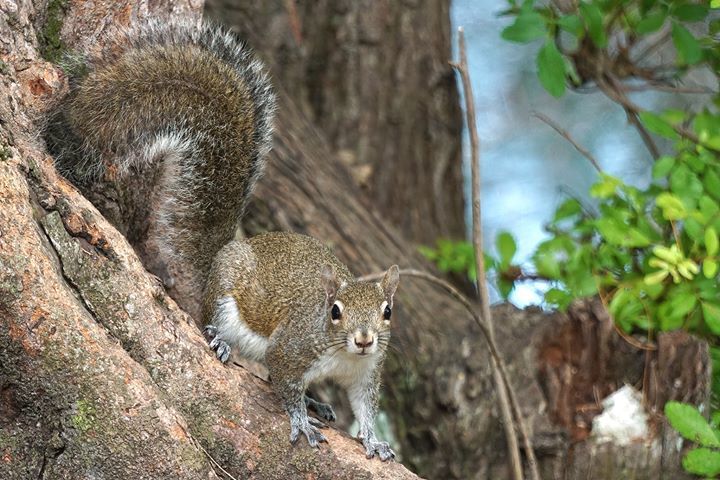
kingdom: Animalia
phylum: Chordata
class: Mammalia
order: Rodentia
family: Sciuridae
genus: Sciurus
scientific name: Sciurus carolinensis
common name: Eastern gray squirrel
